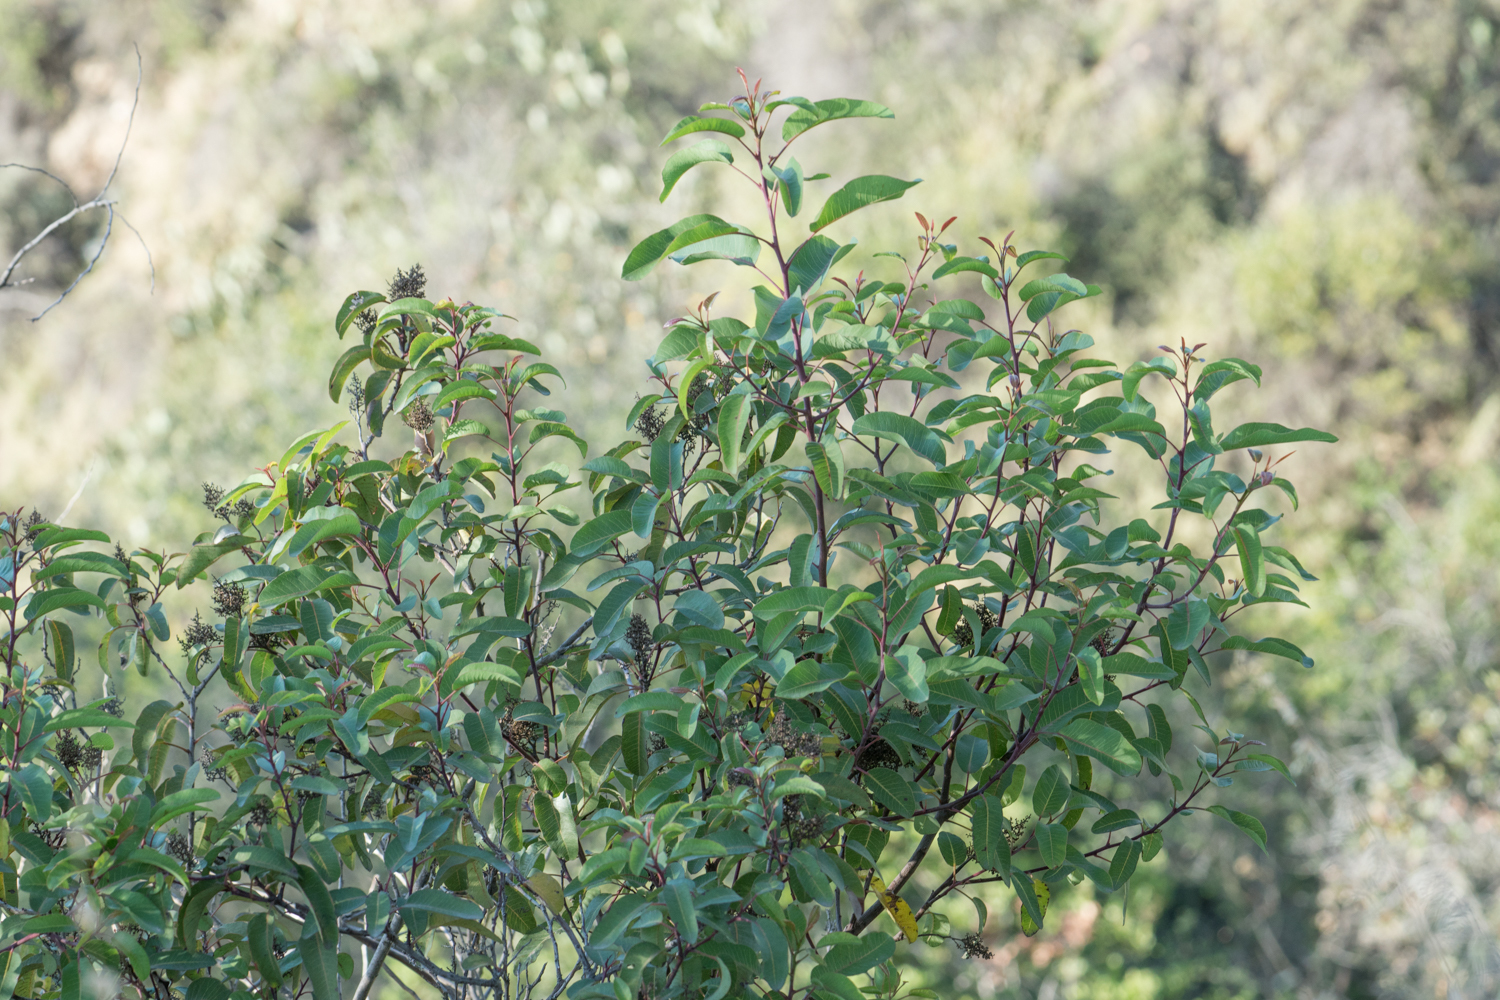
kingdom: Plantae
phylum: Tracheophyta
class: Magnoliopsida
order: Sapindales
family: Anacardiaceae
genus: Malosma
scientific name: Malosma laurina
